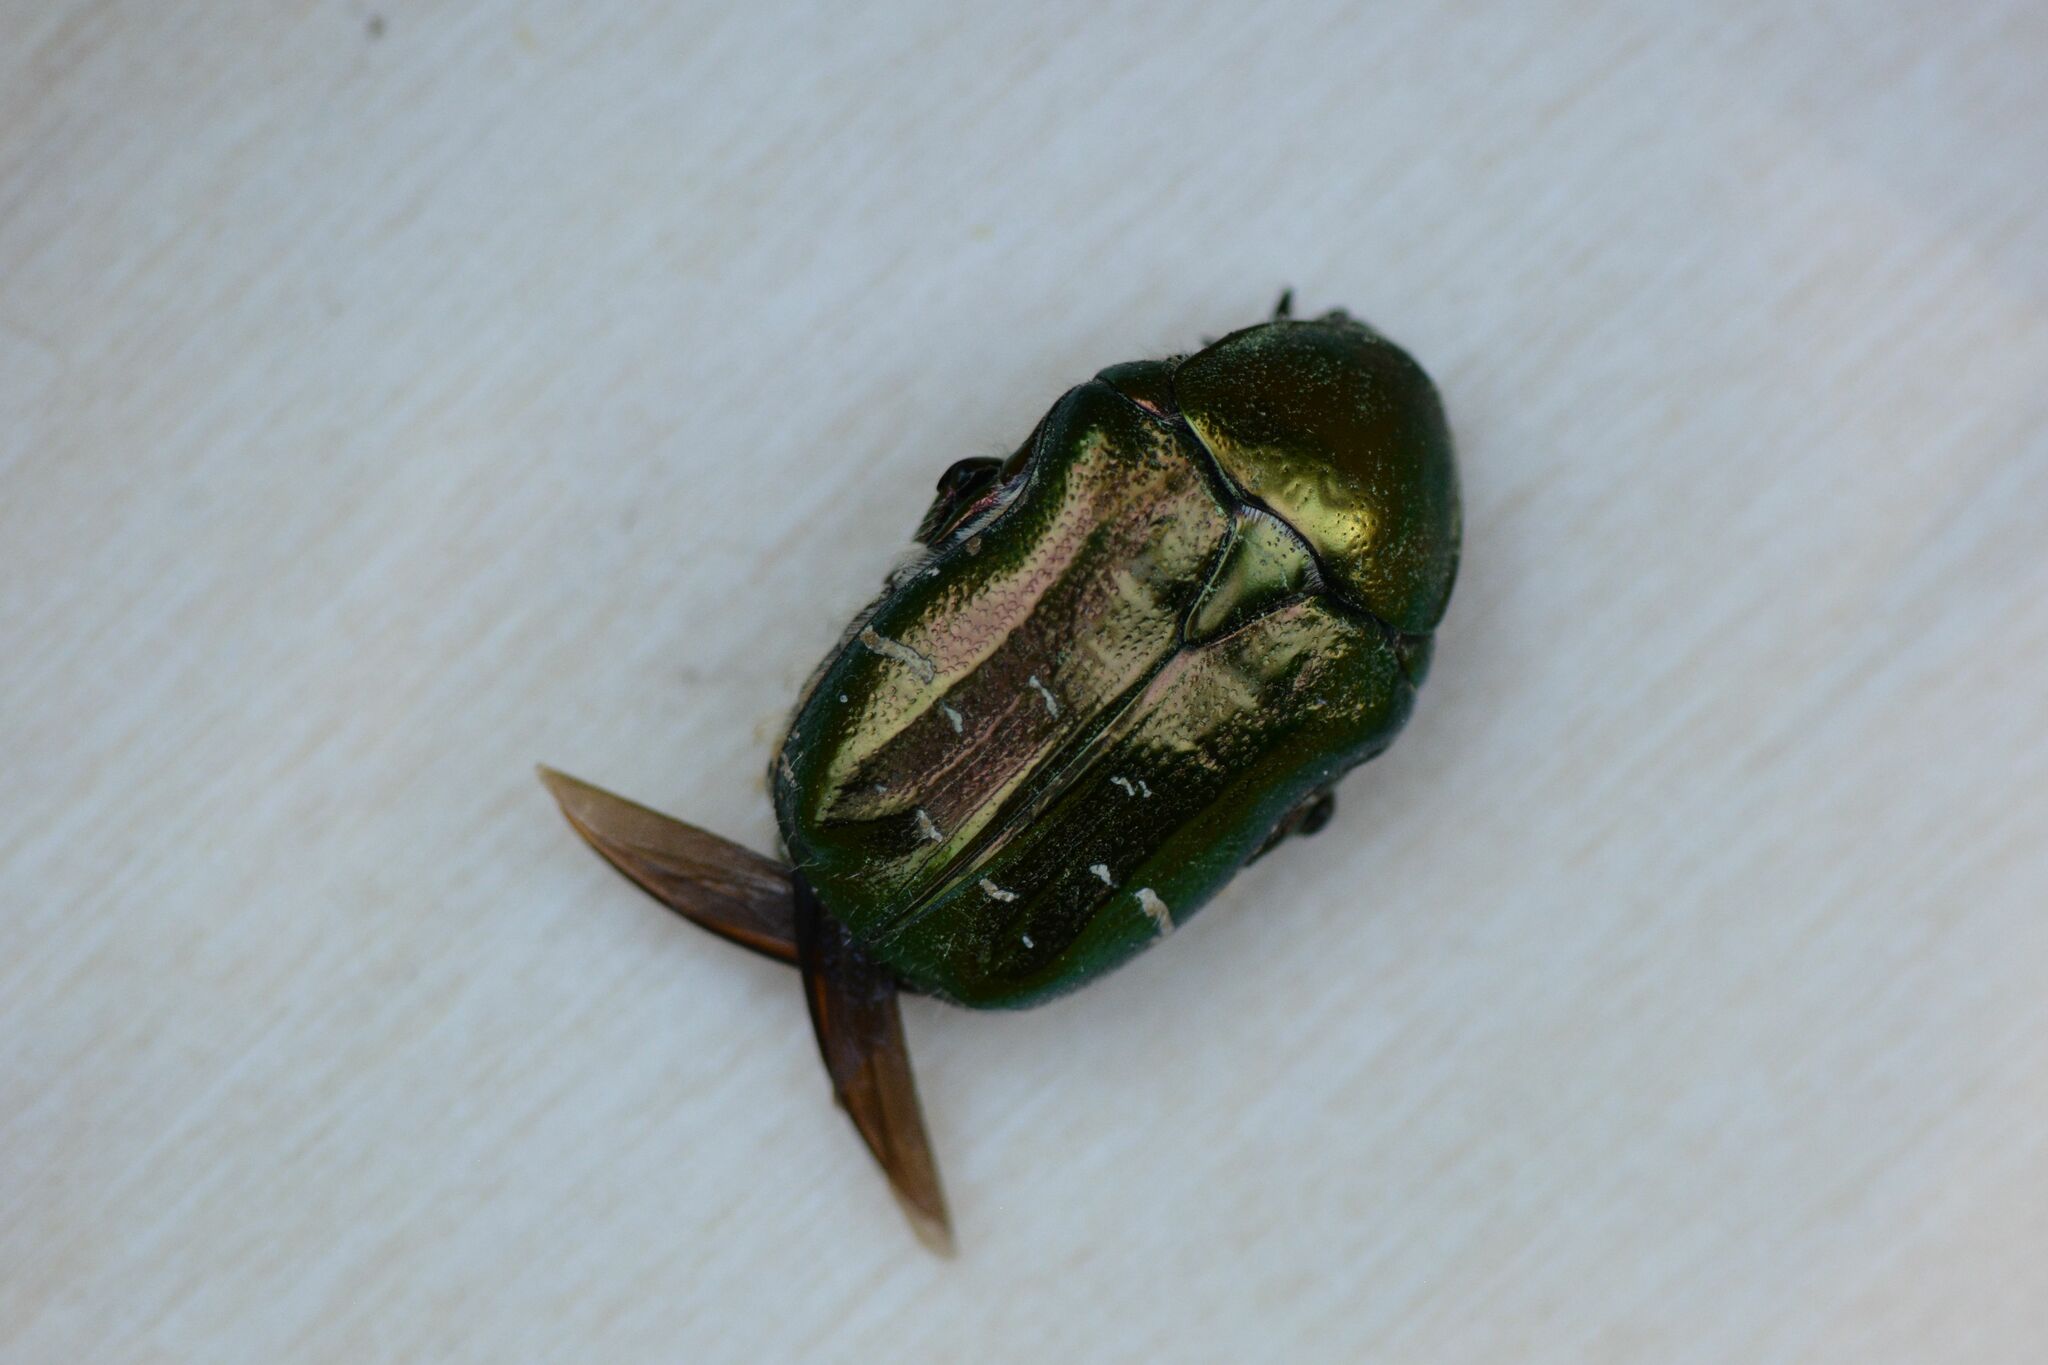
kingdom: Animalia
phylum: Arthropoda
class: Insecta
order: Coleoptera
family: Scarabaeidae
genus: Cetonia
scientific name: Cetonia aurata
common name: Rose chafer
